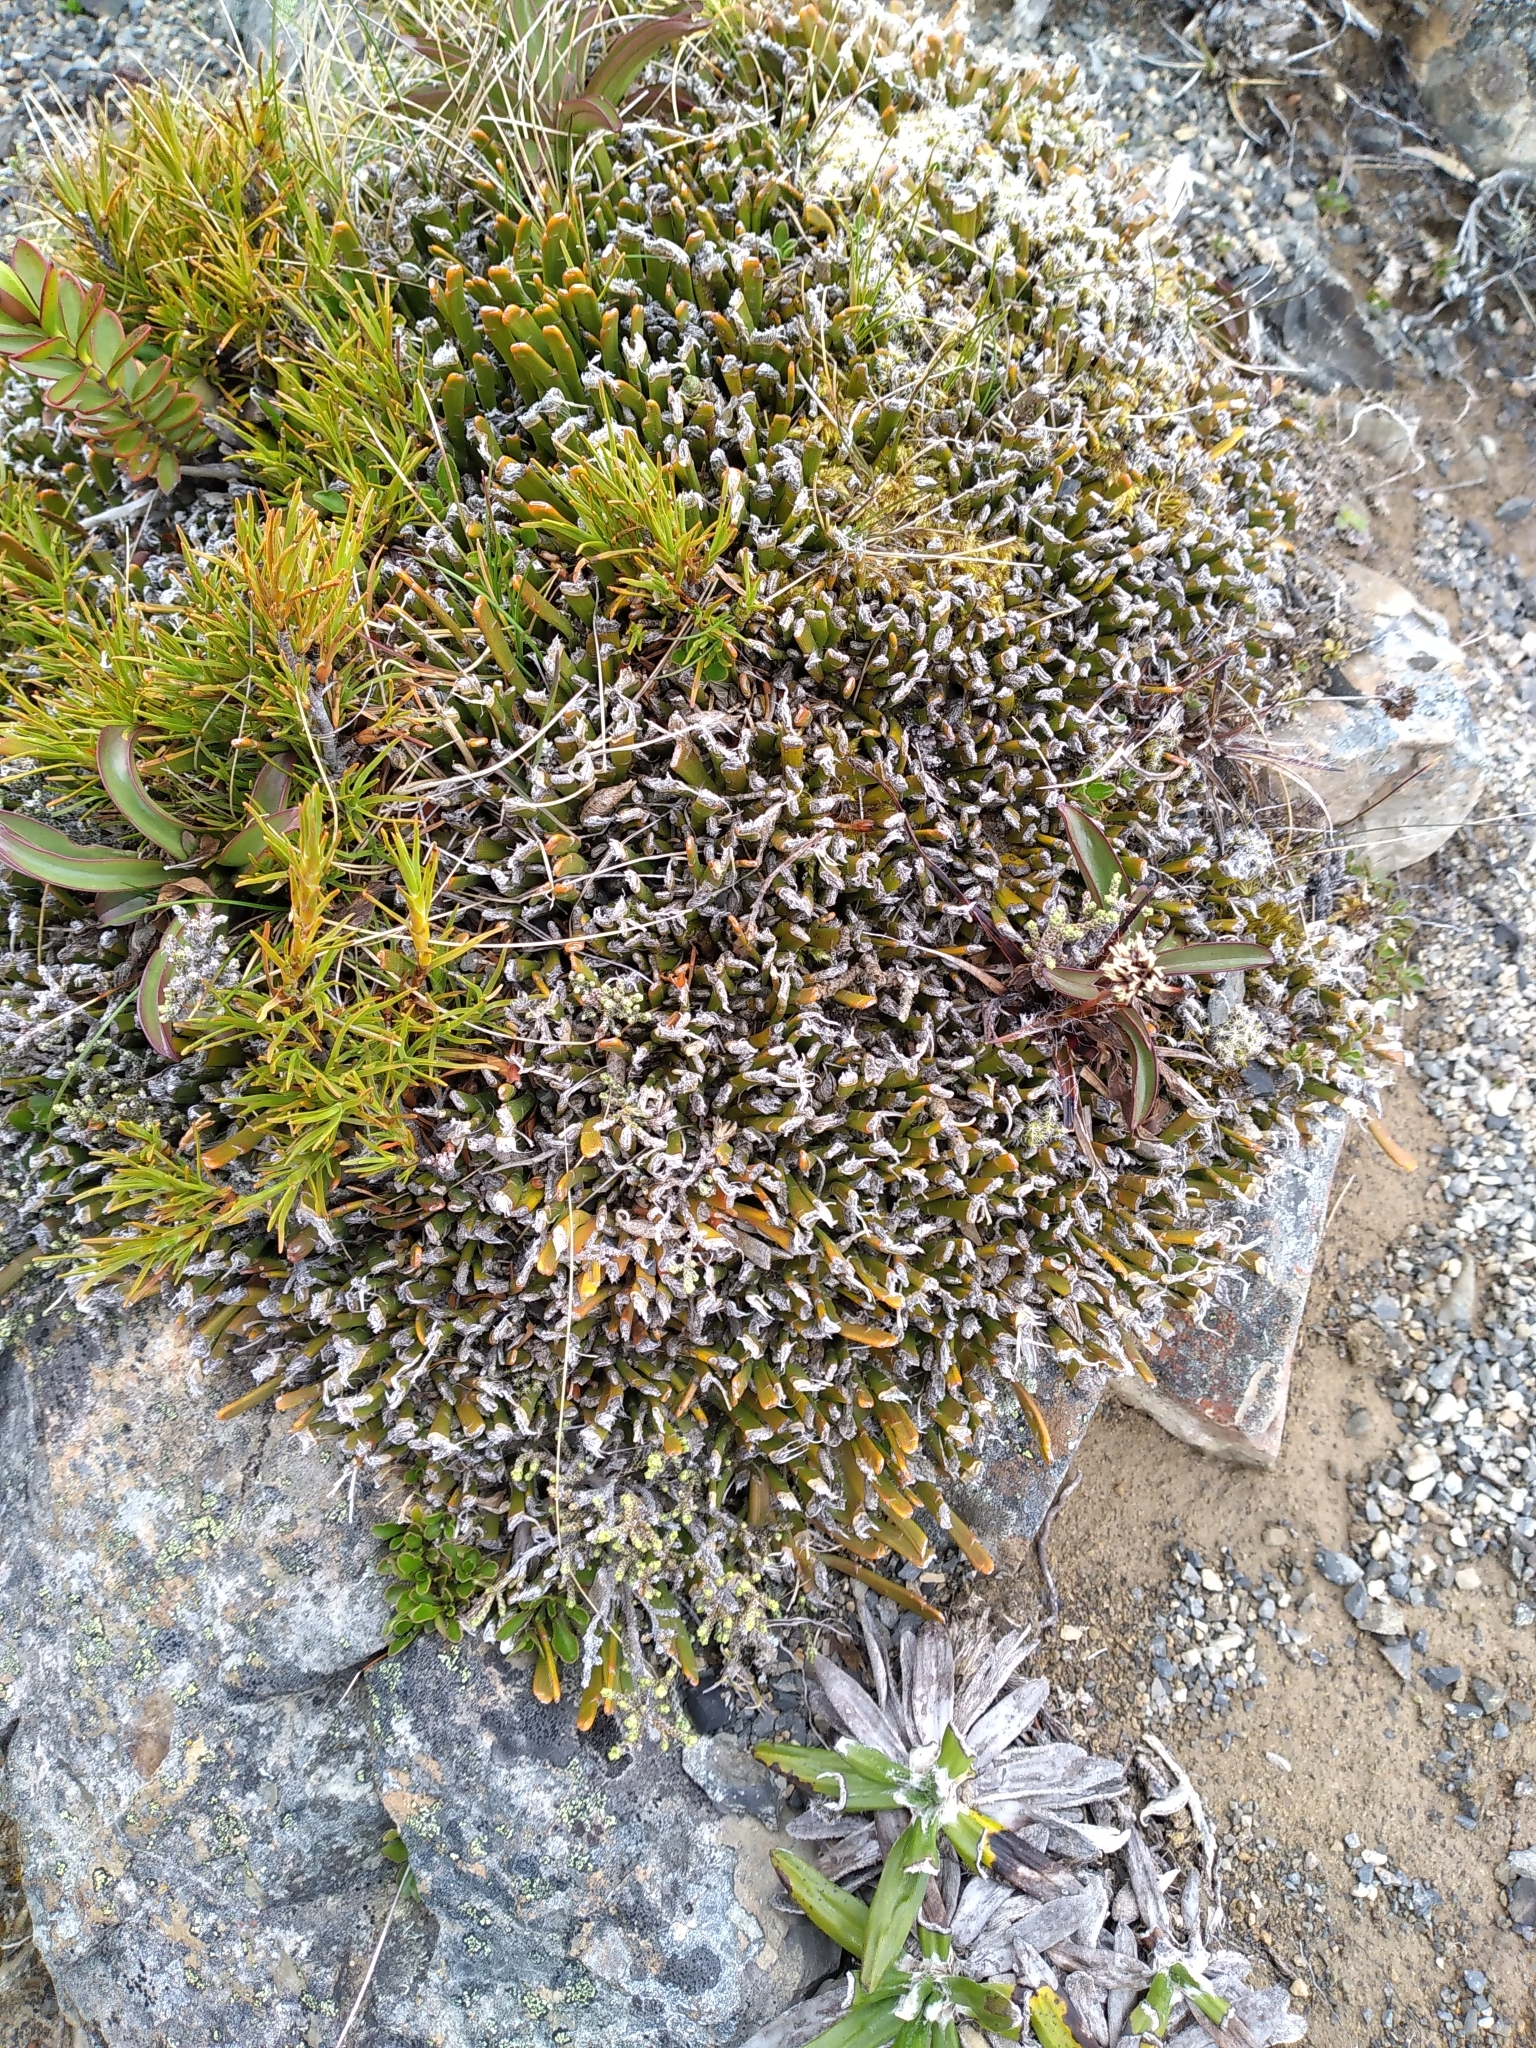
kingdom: Plantae
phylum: Tracheophyta
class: Magnoliopsida
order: Fabales
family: Fabaceae
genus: Carmichaelia
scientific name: Carmichaelia monroi
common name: Stout dwarf broom
